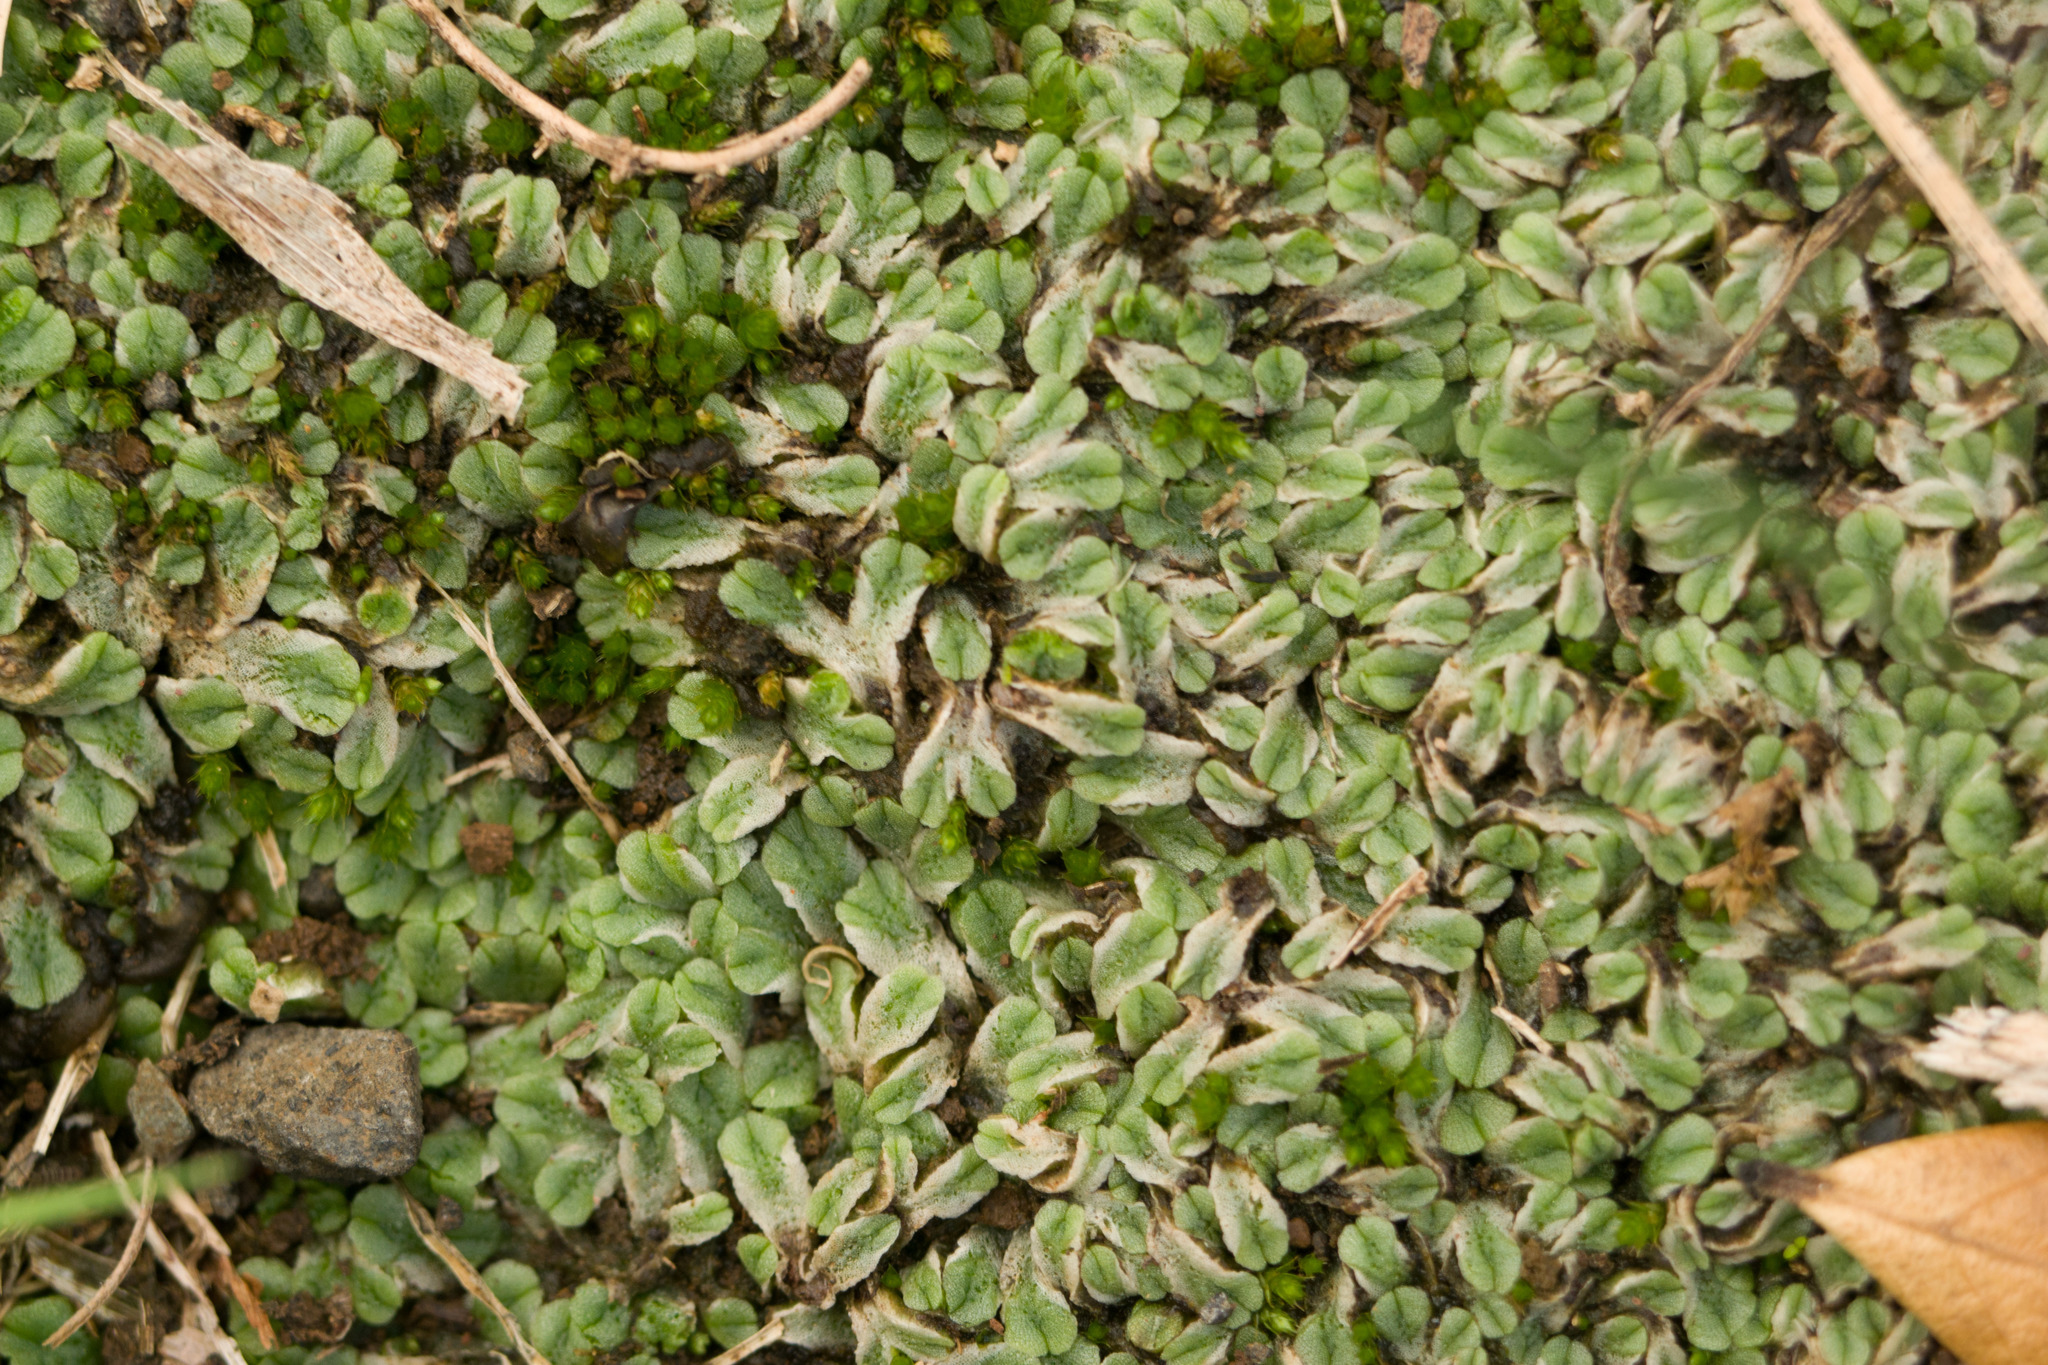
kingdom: Plantae
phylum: Marchantiophyta
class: Marchantiopsida
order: Marchantiales
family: Ricciaceae
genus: Riccia
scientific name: Riccia hawaiiensis
